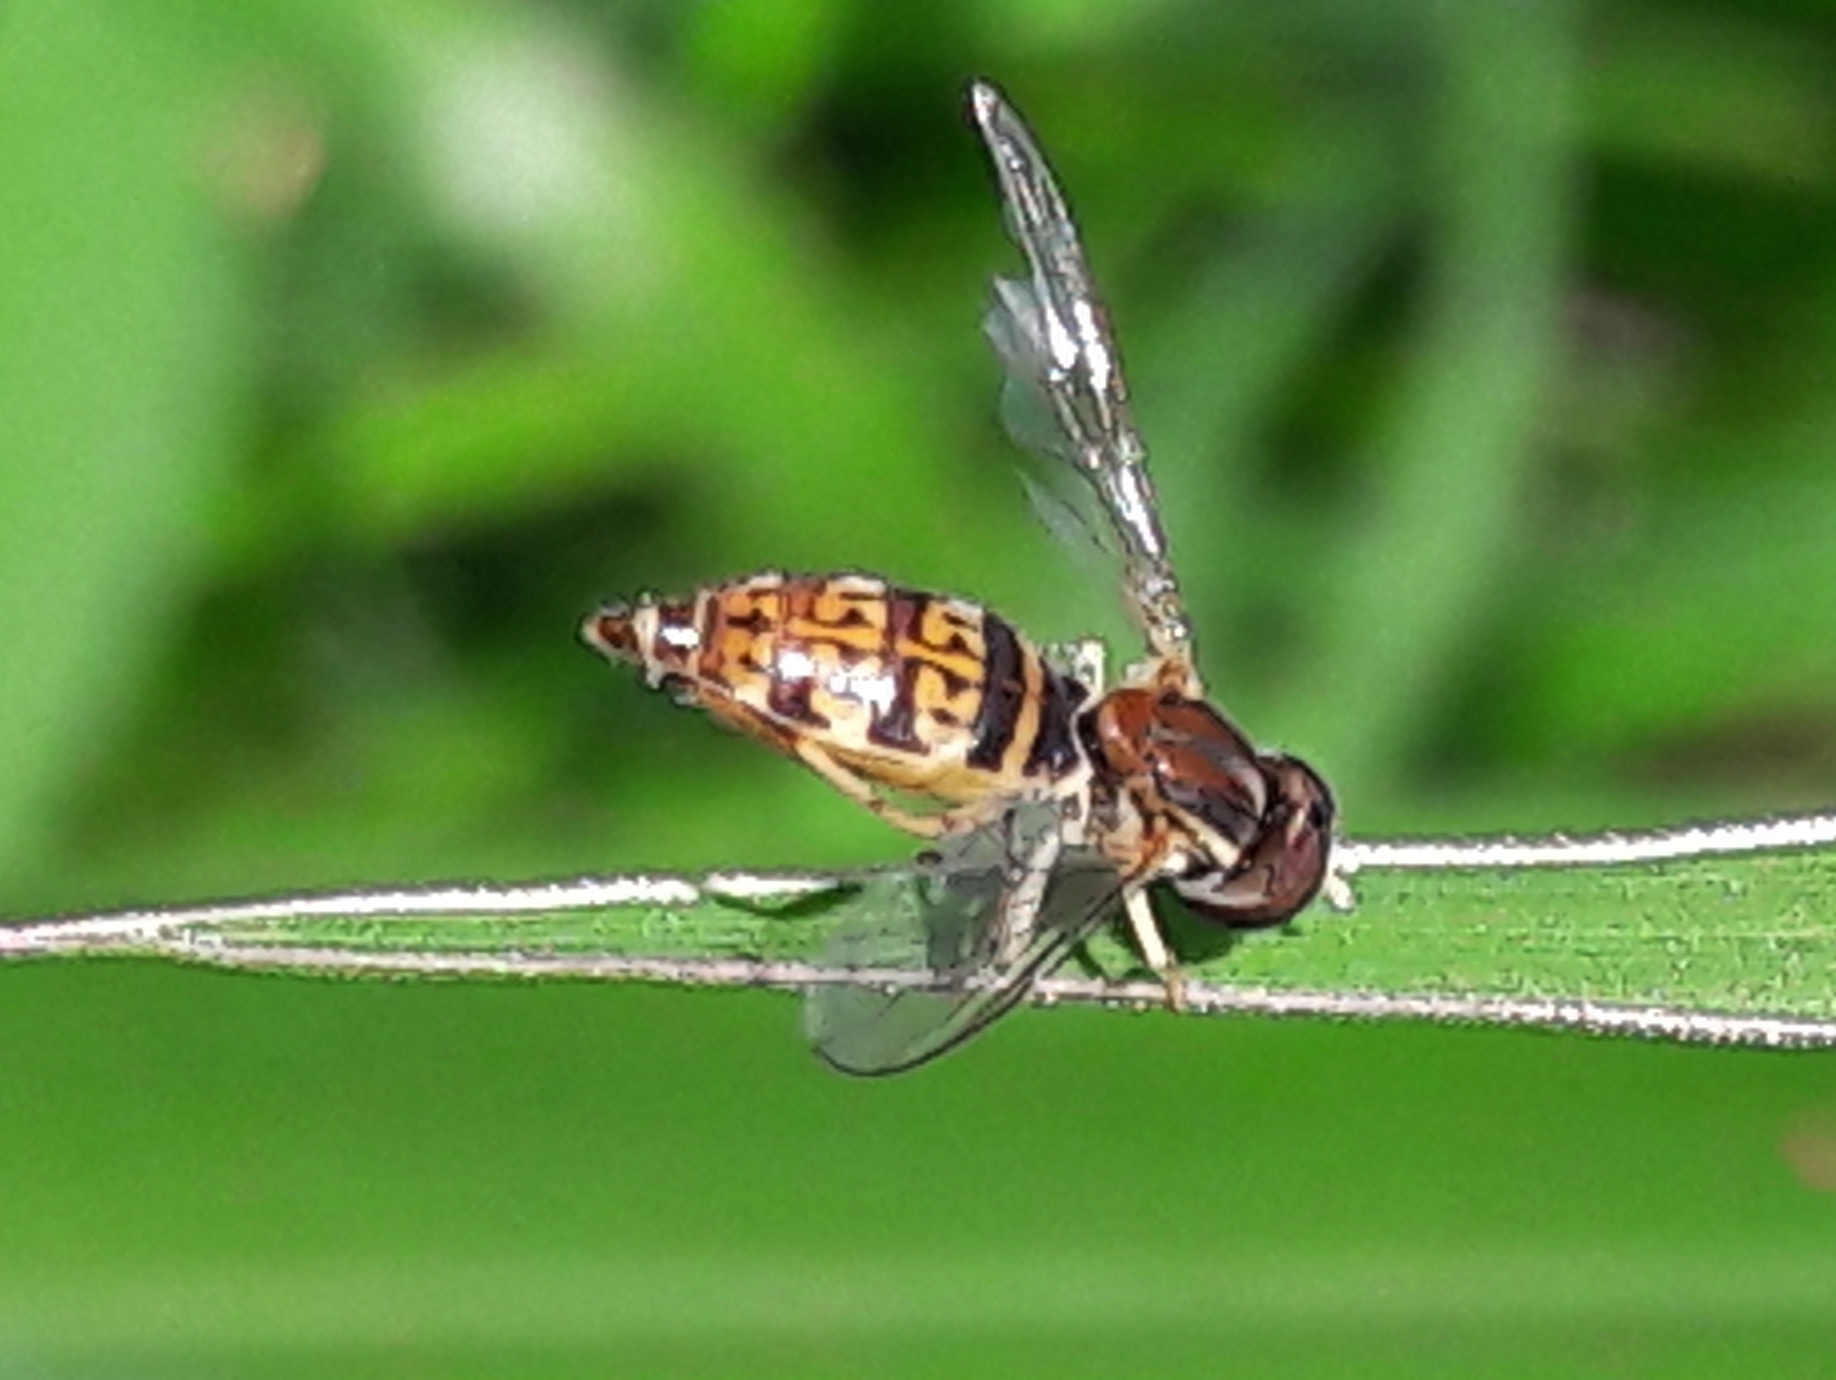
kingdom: Animalia
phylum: Arthropoda
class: Insecta
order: Diptera
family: Syrphidae
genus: Toxomerus
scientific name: Toxomerus
